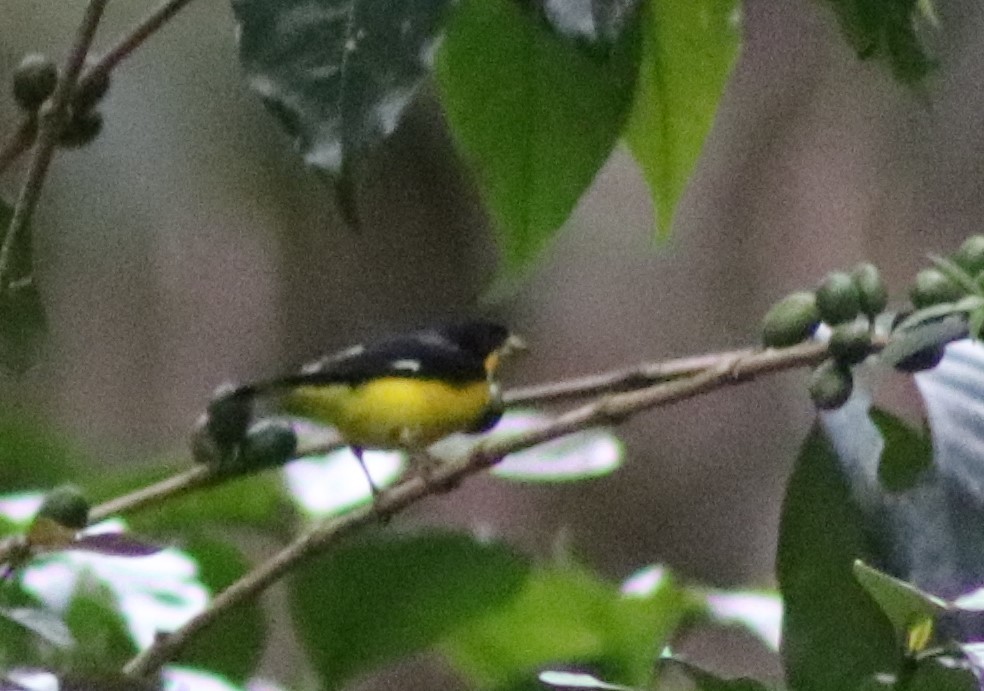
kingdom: Animalia
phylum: Chordata
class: Aves
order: Passeriformes
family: Fringillidae
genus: Spinus
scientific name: Spinus psaltria
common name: Lesser goldfinch
